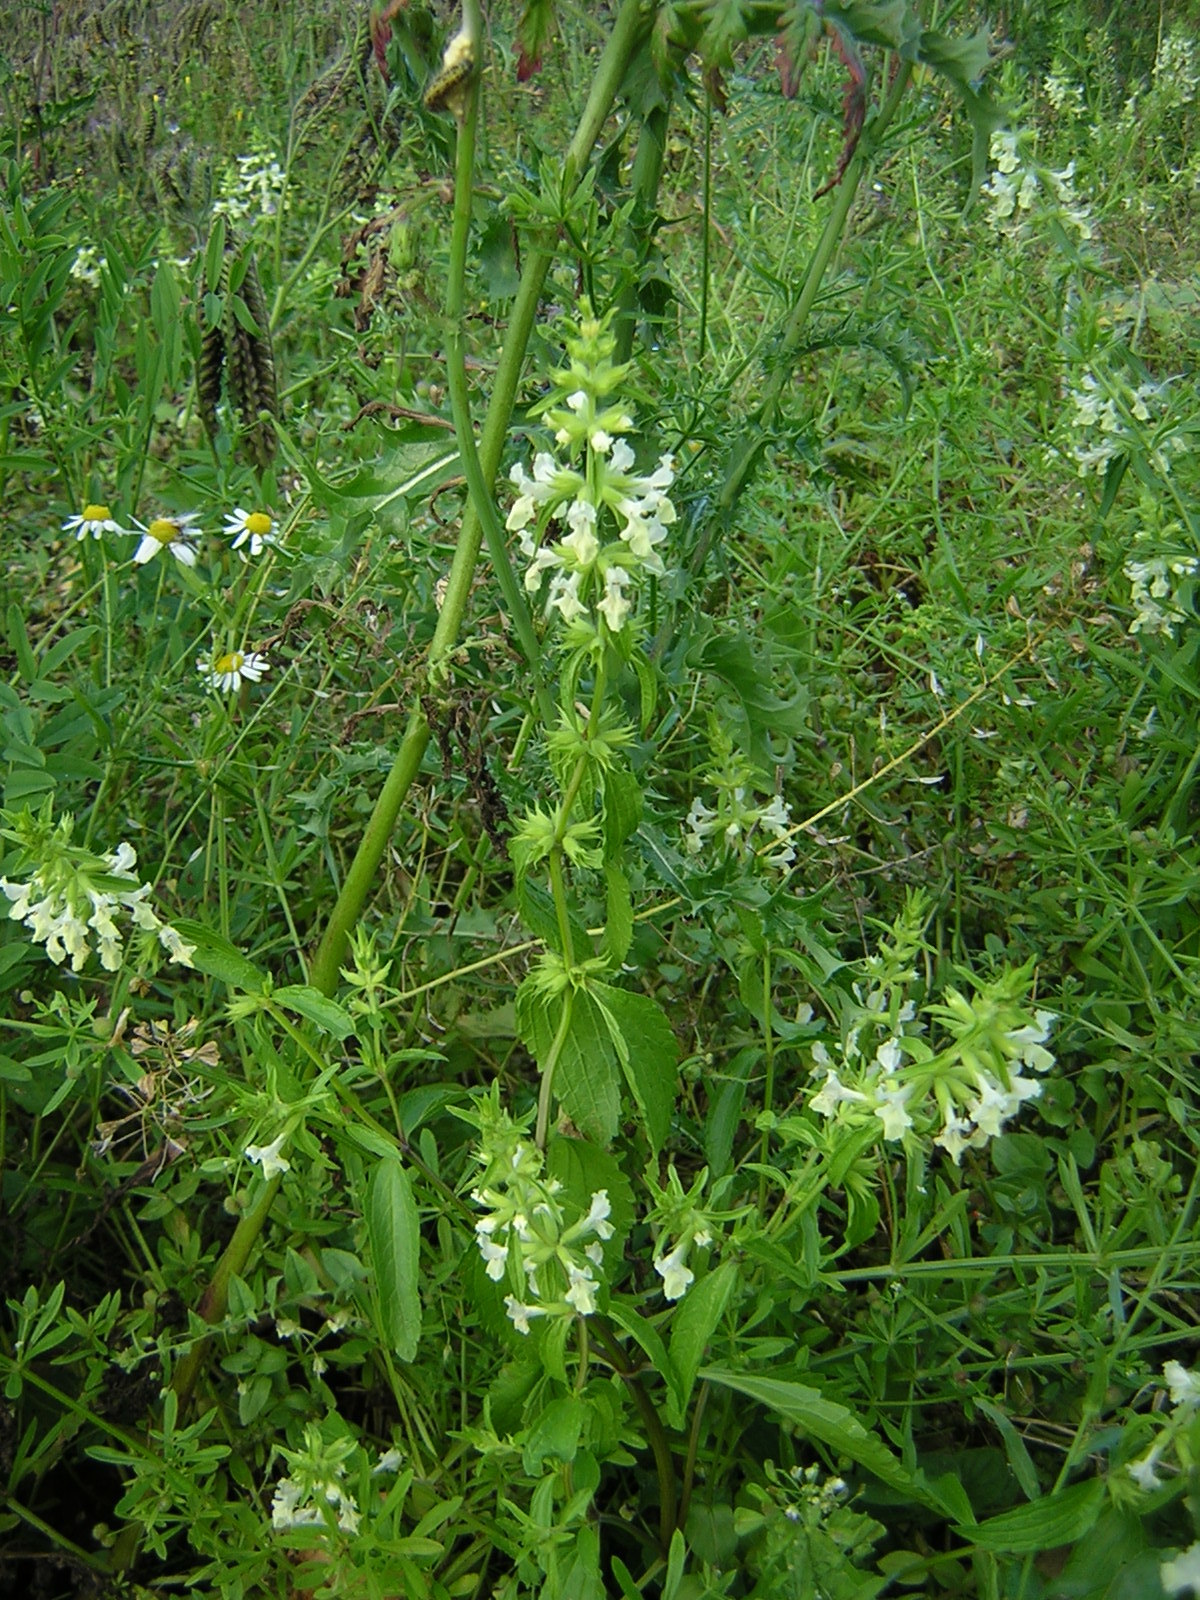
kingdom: Plantae
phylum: Tracheophyta
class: Magnoliopsida
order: Lamiales
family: Lamiaceae
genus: Stachys
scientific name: Stachys annua
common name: Annual yellow-woundwort
